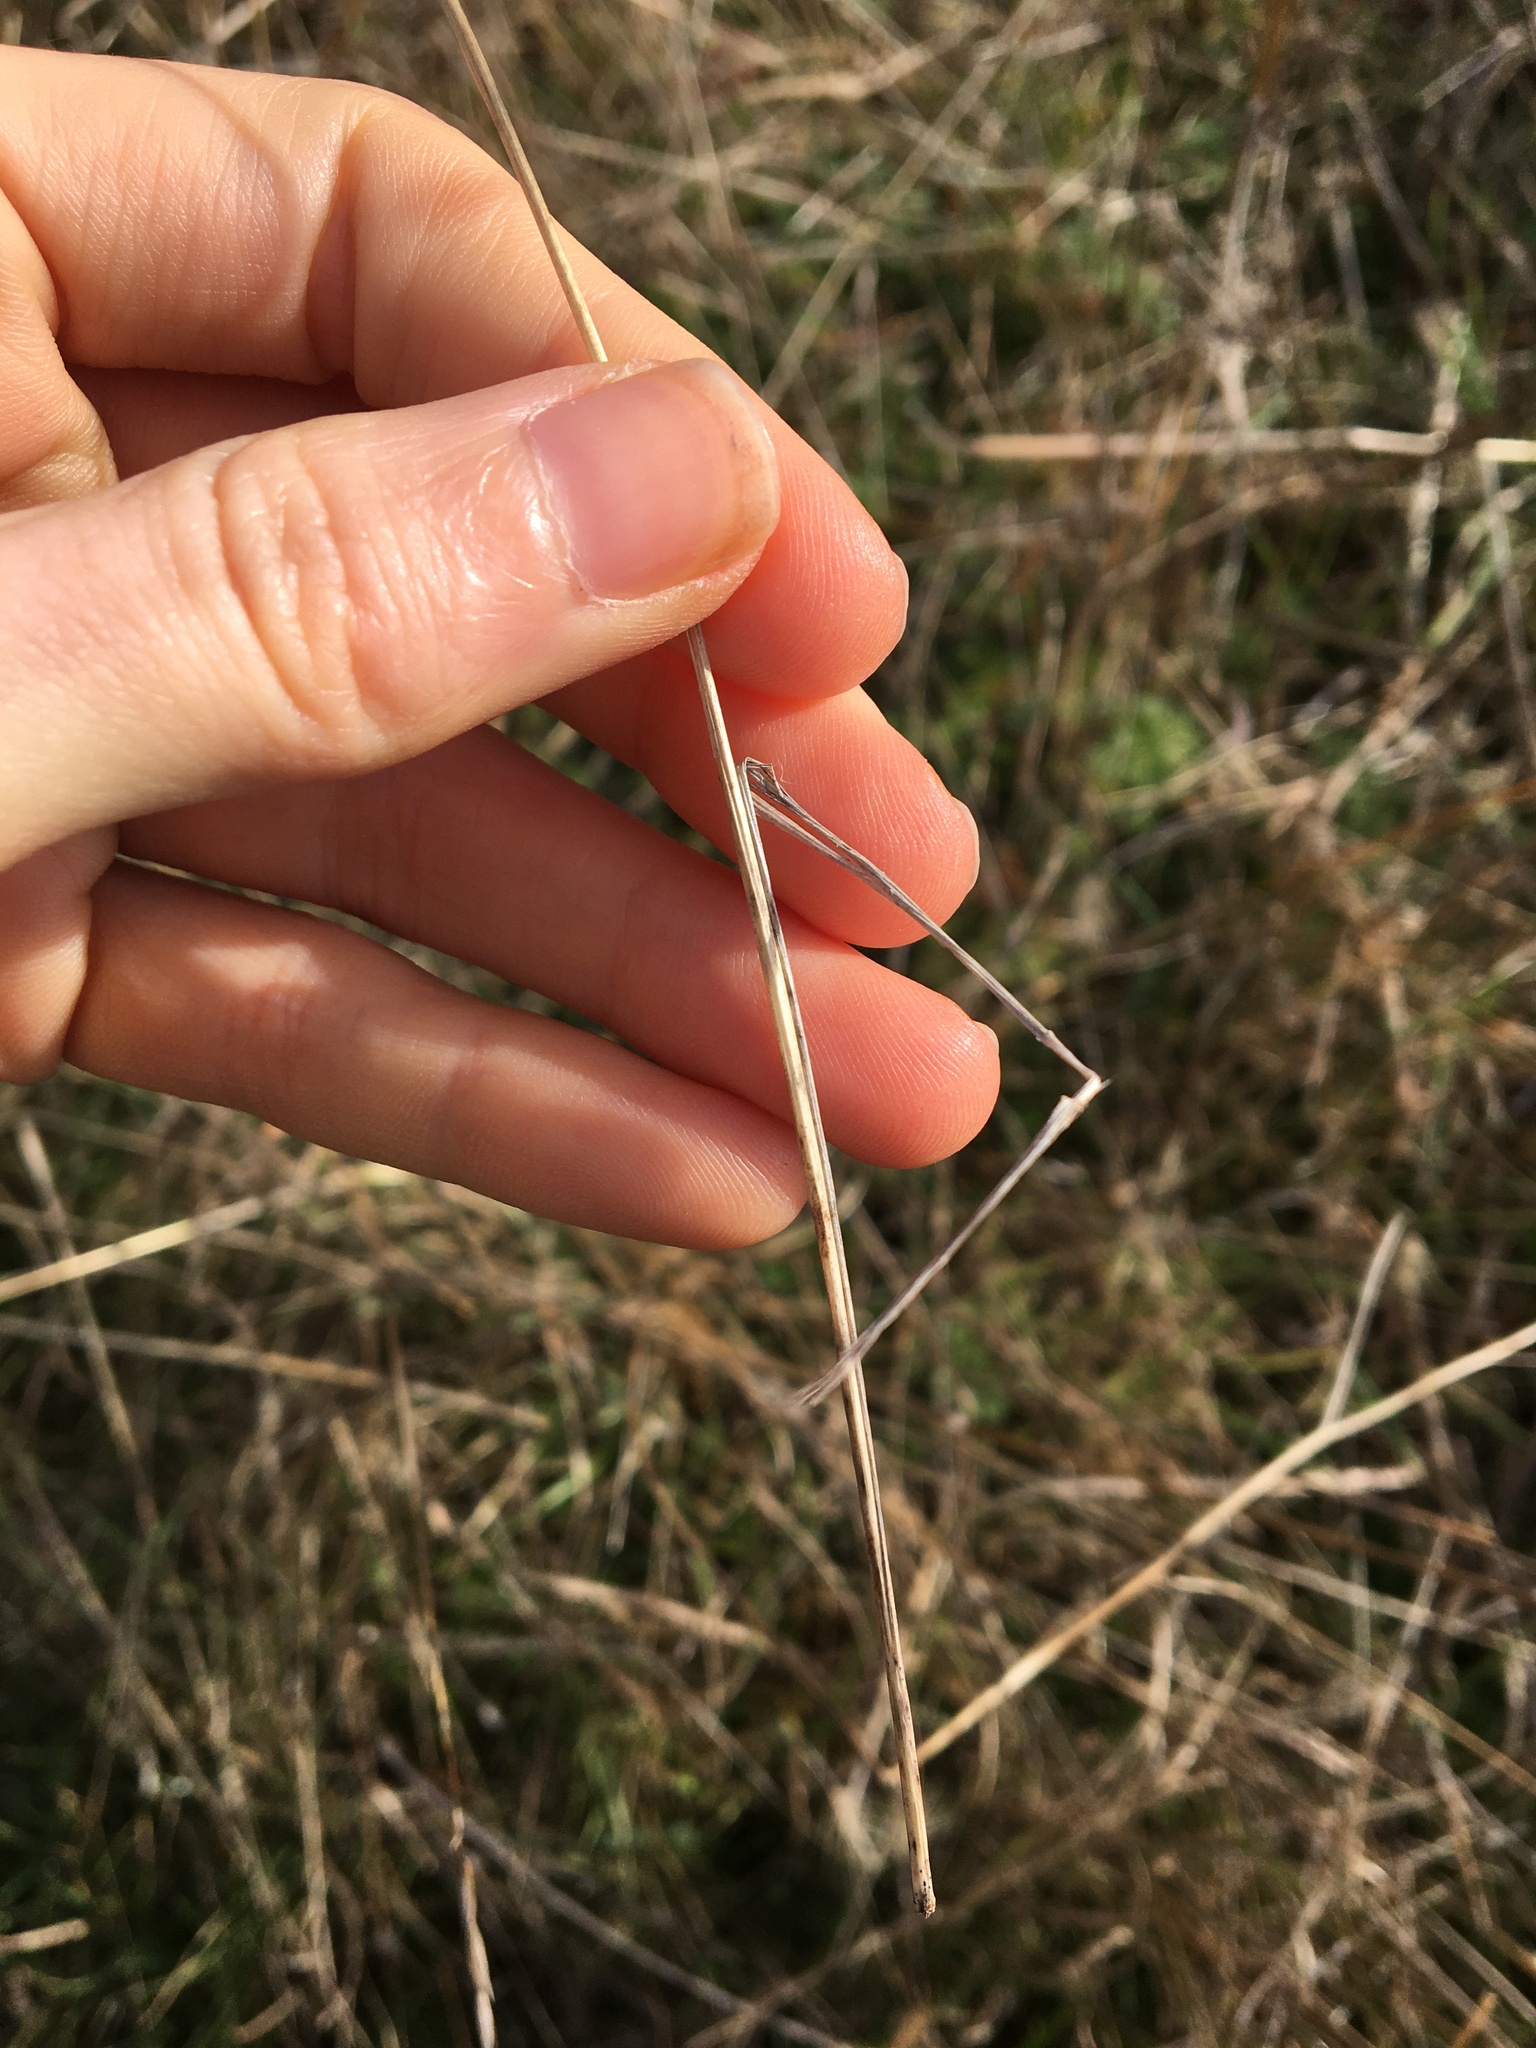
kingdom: Plantae
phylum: Tracheophyta
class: Liliopsida
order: Poales
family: Poaceae
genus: Taeniatherum
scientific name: Taeniatherum caput-medusae
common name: Medusahead
